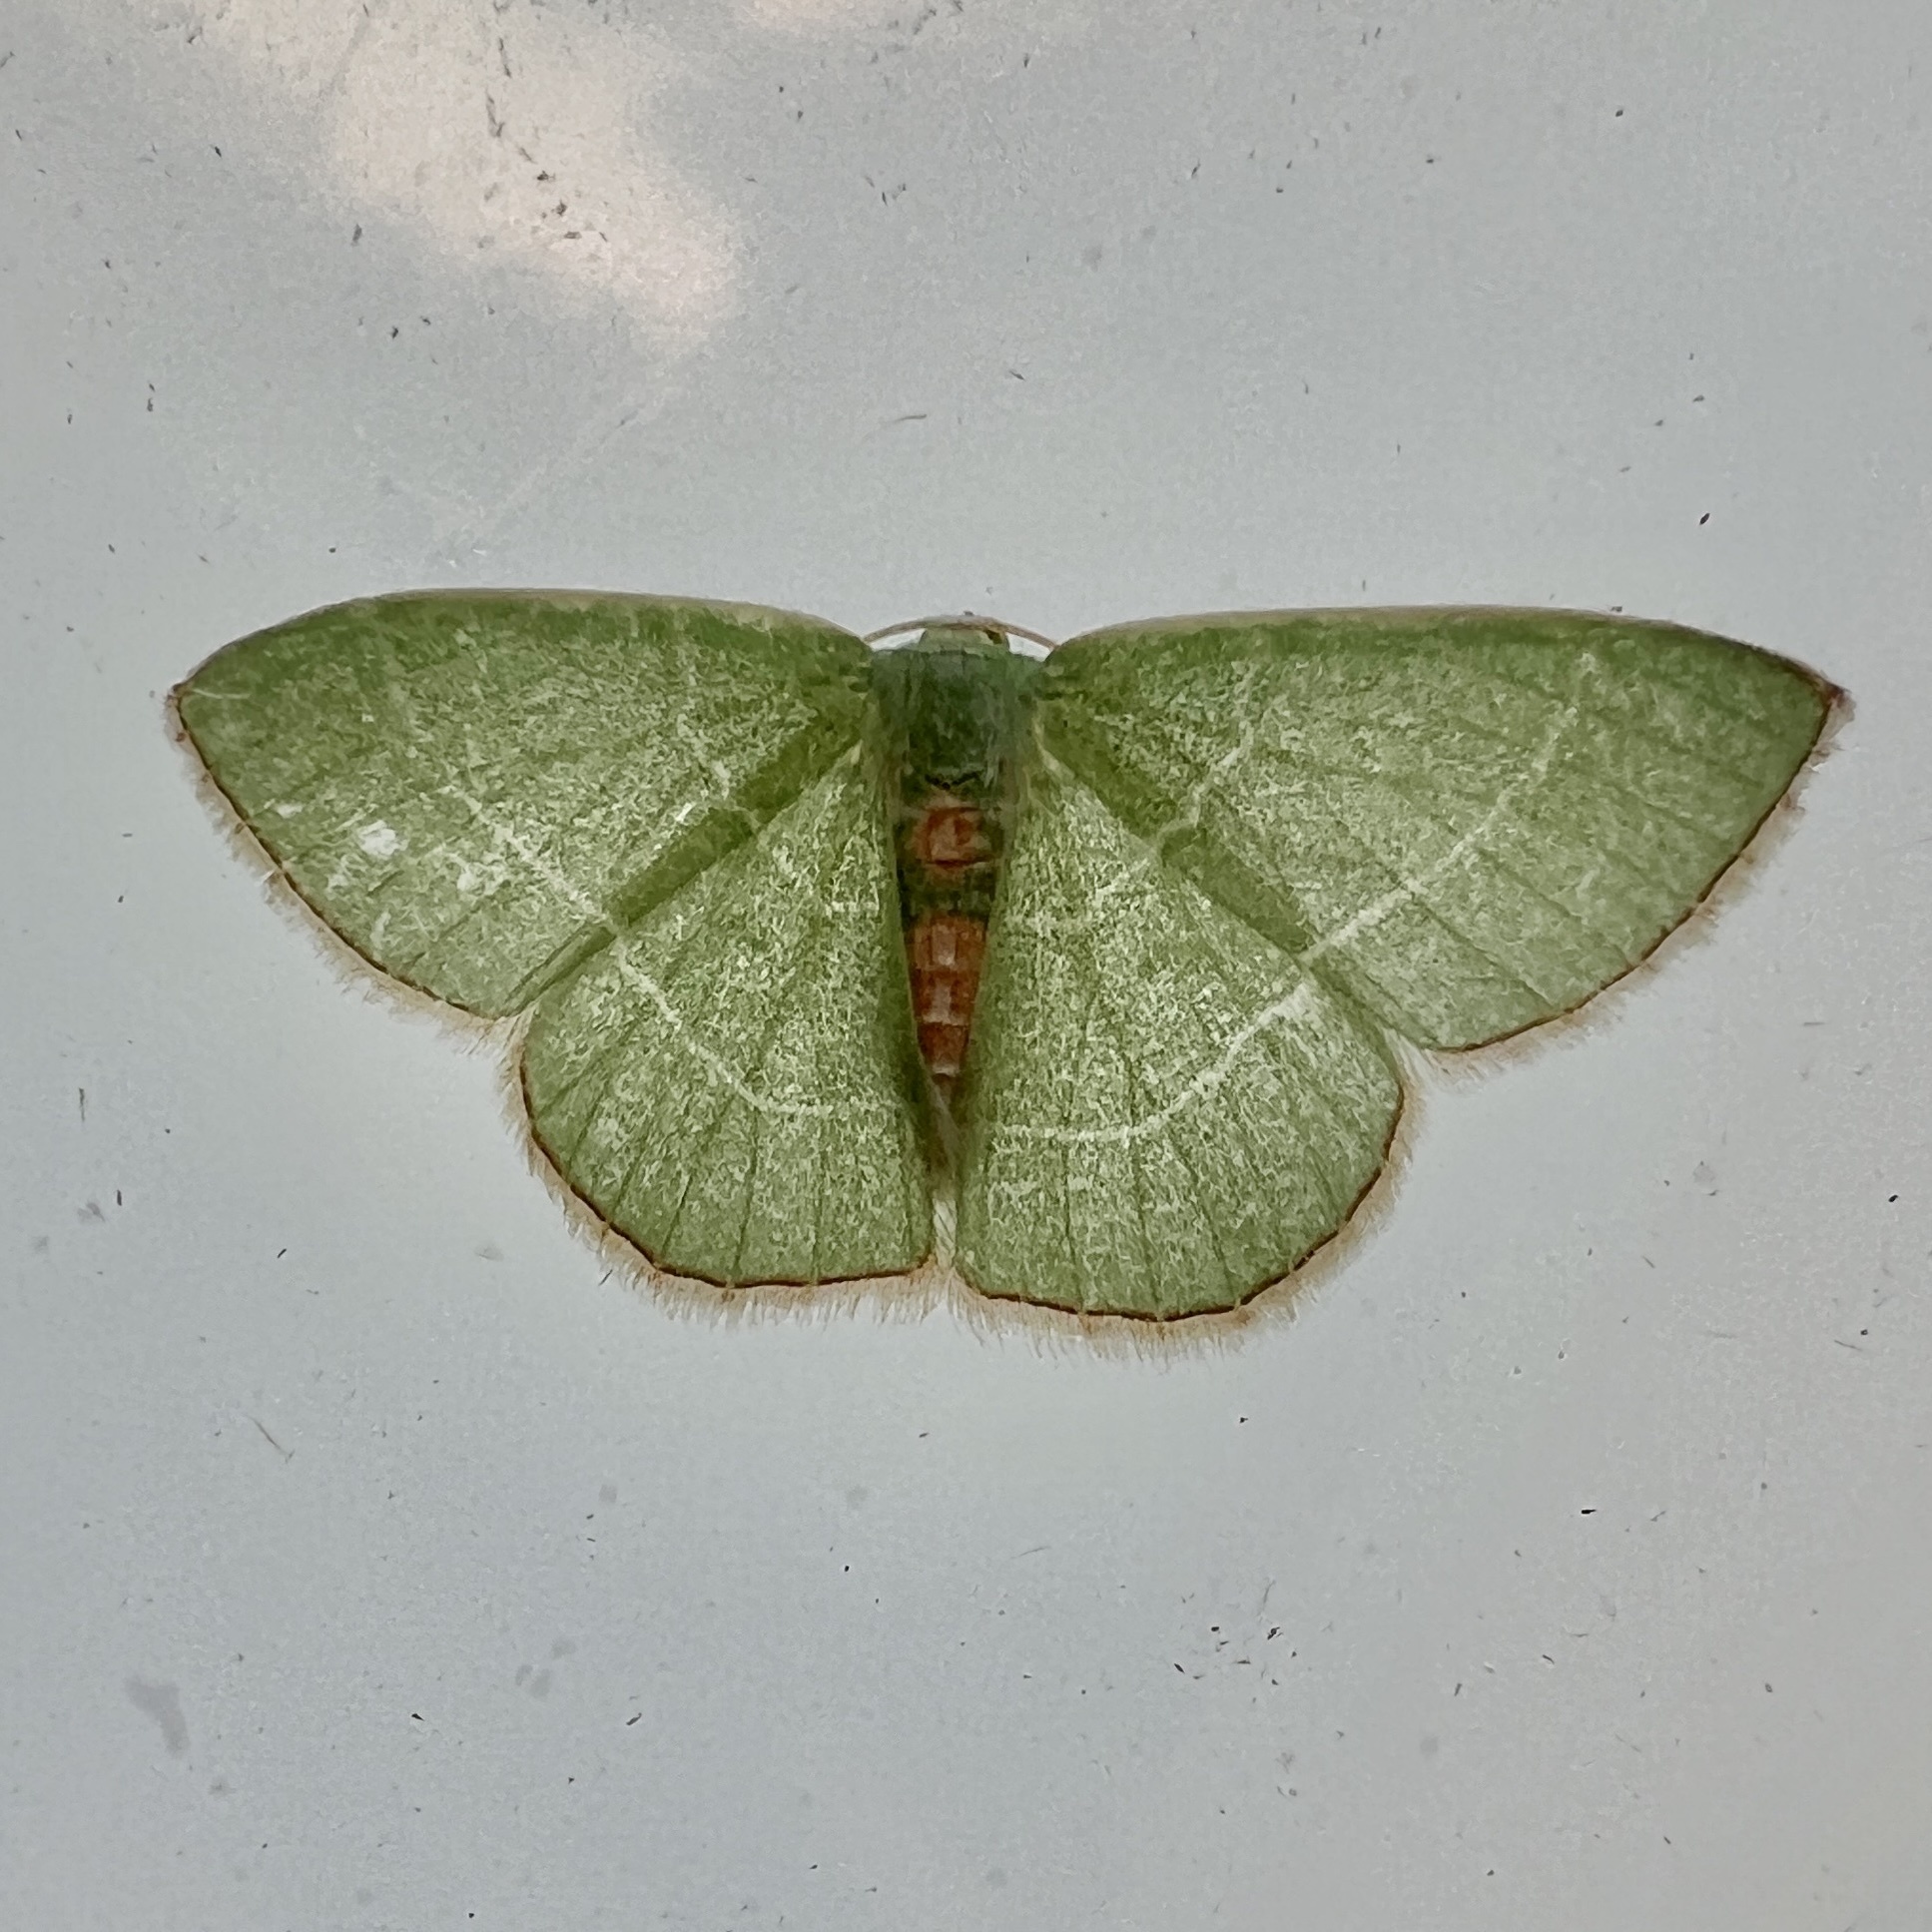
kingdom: Animalia
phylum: Arthropoda
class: Insecta
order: Lepidoptera
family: Geometridae
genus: Nemoria
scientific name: Nemoria bistriaria
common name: Red-fringed emerald
